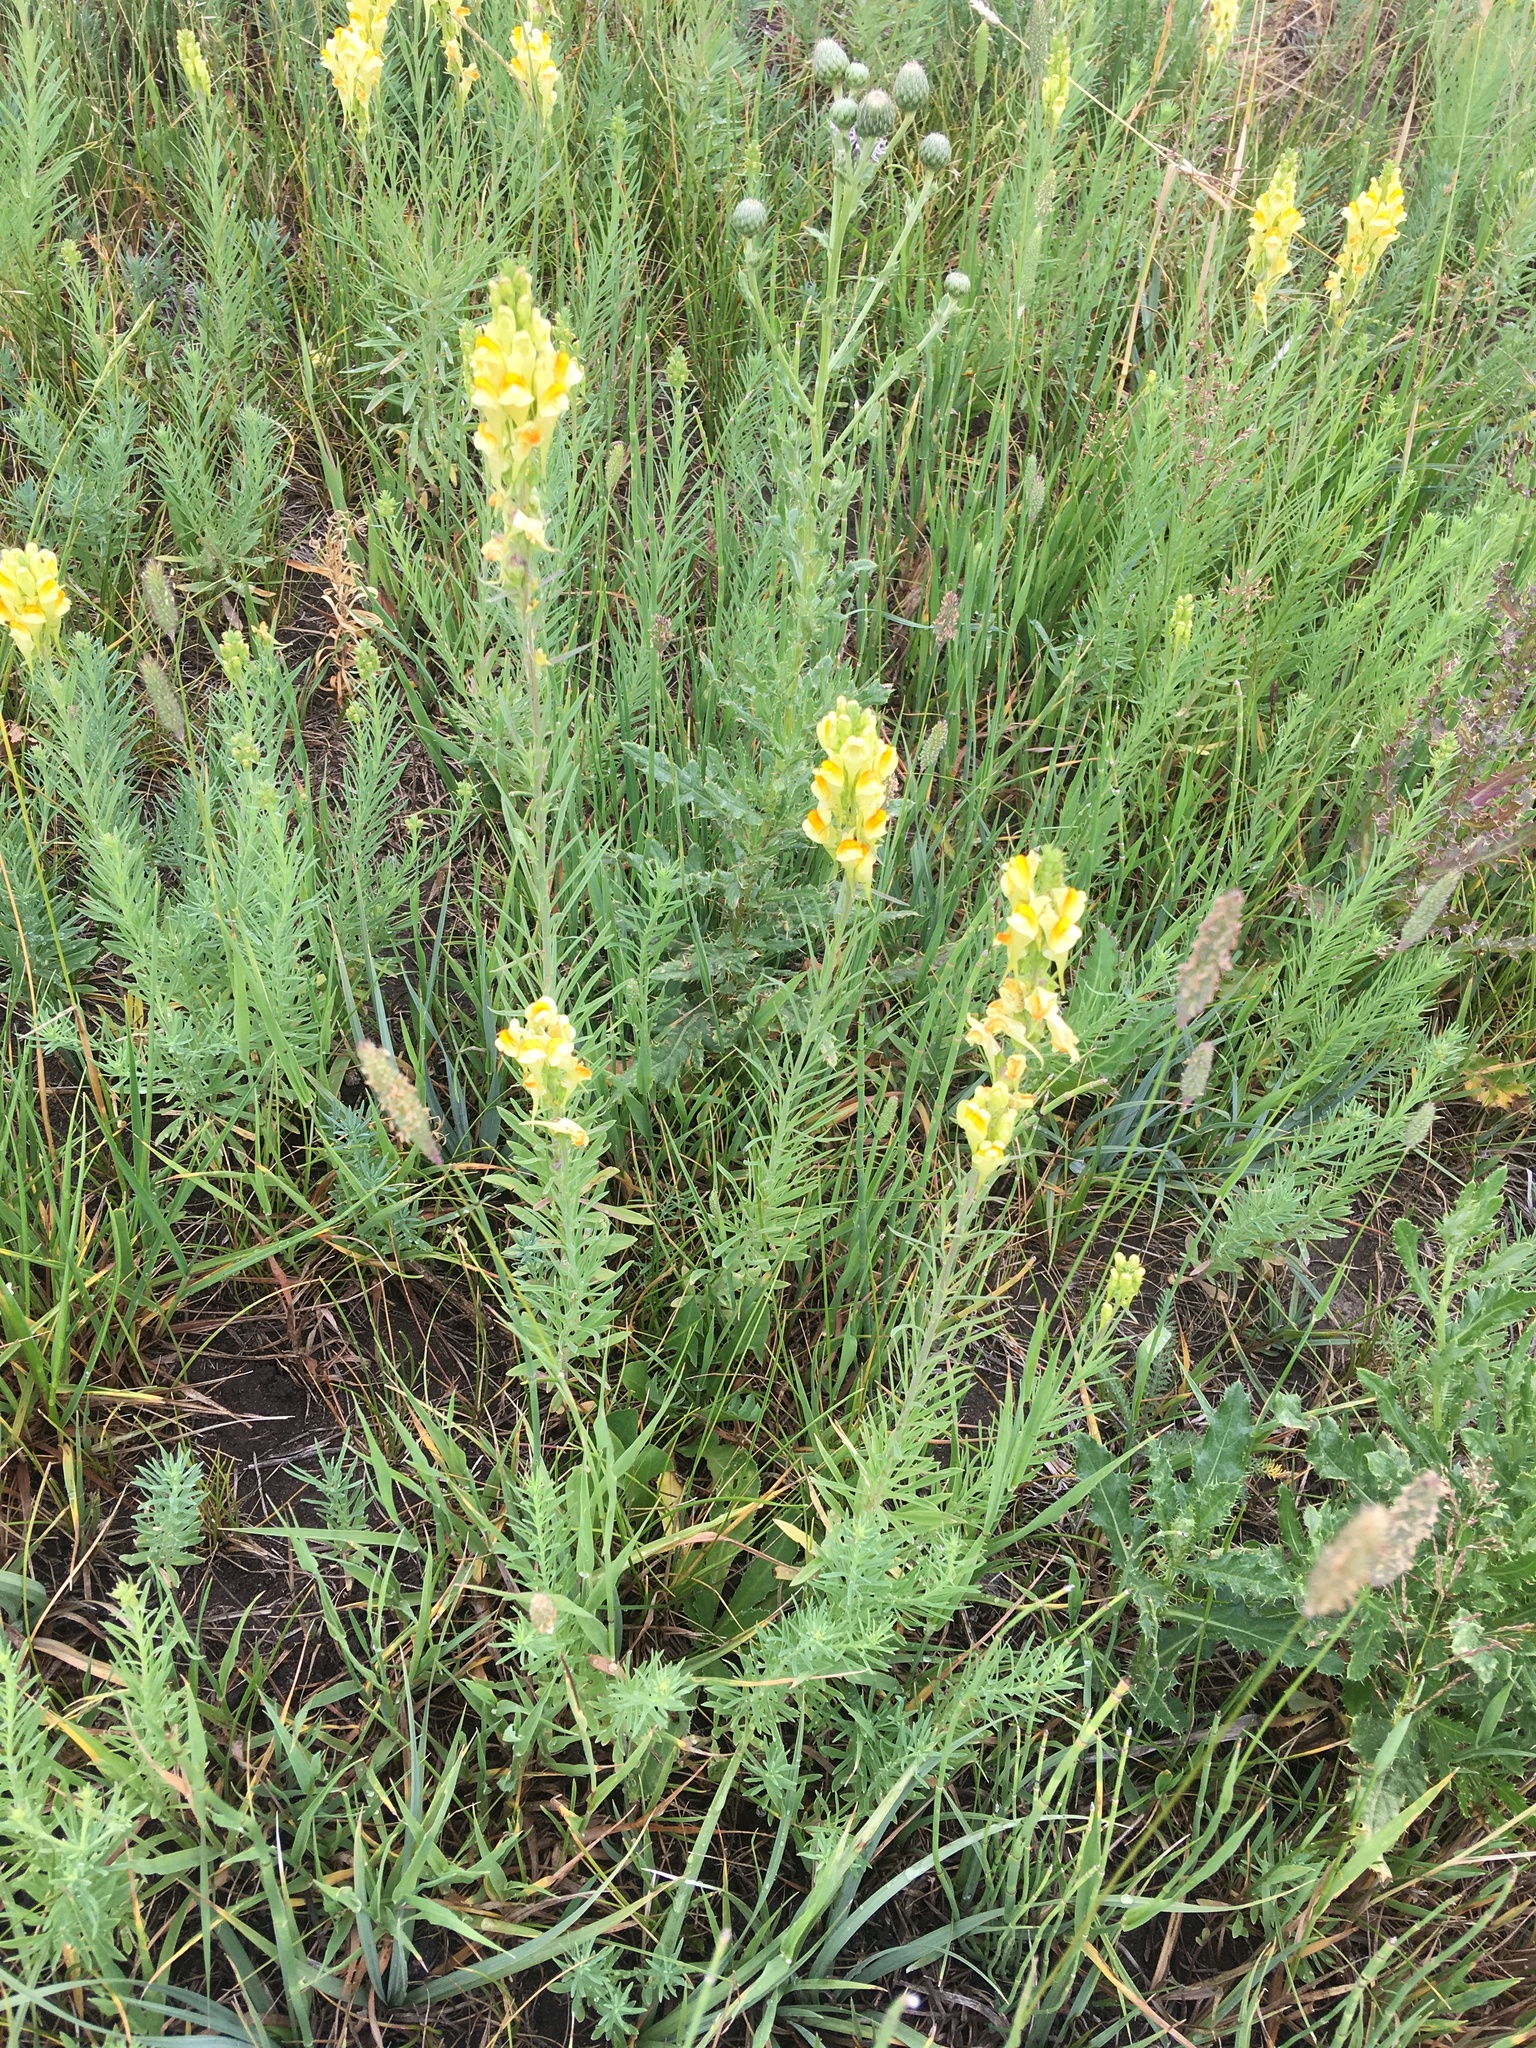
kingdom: Plantae
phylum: Tracheophyta
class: Magnoliopsida
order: Lamiales
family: Plantaginaceae
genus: Linaria
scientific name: Linaria vulgaris
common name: Butter and eggs
